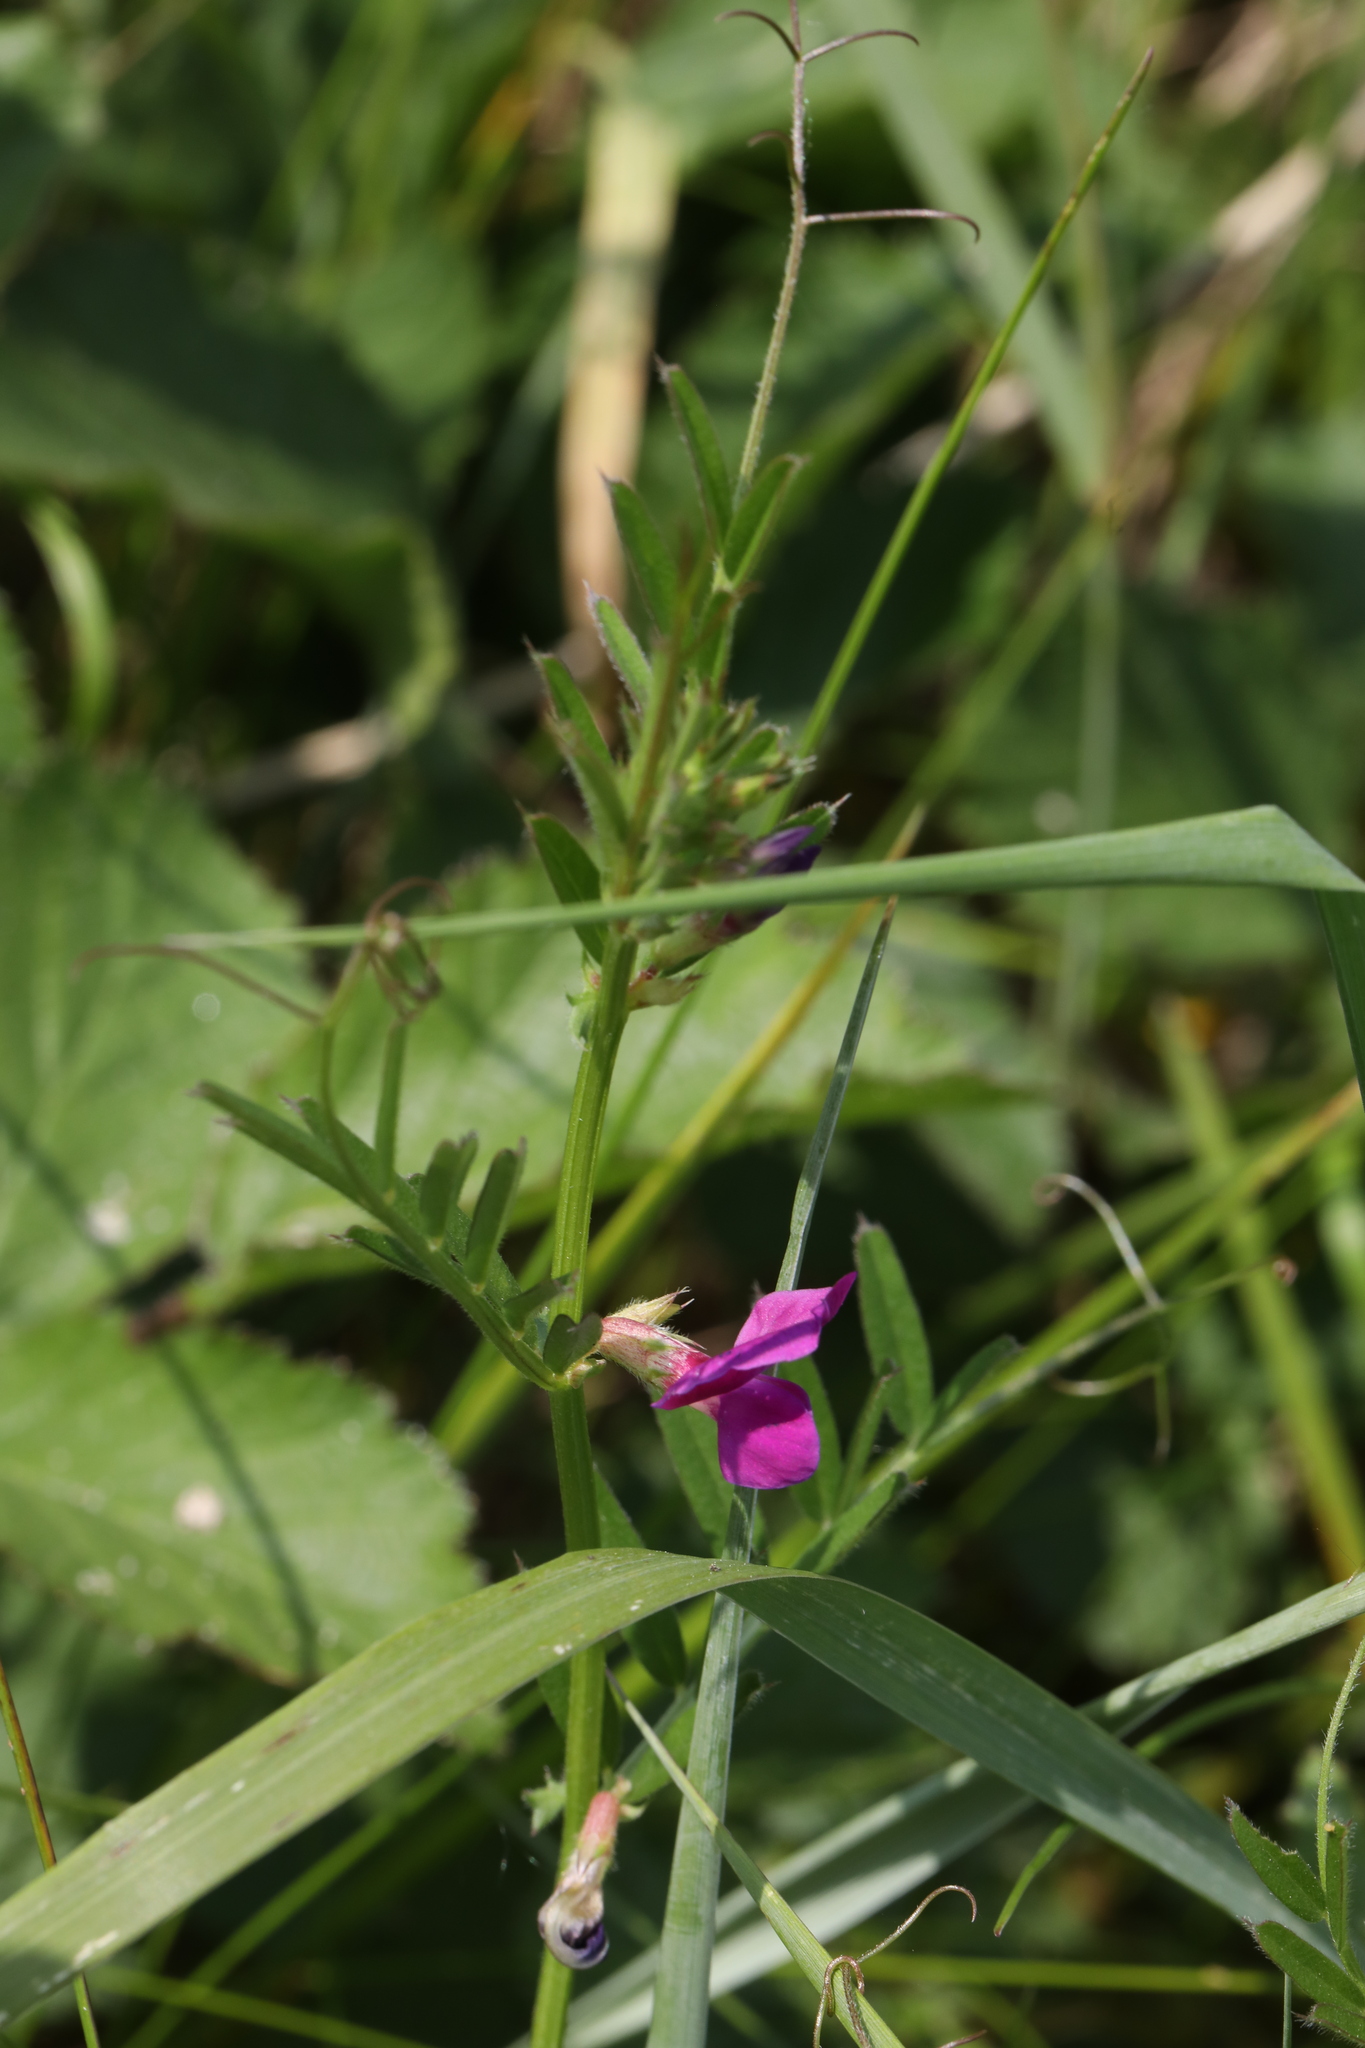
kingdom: Plantae
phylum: Tracheophyta
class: Magnoliopsida
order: Fabales
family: Fabaceae
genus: Vicia
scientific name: Vicia sativa
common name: Garden vetch
